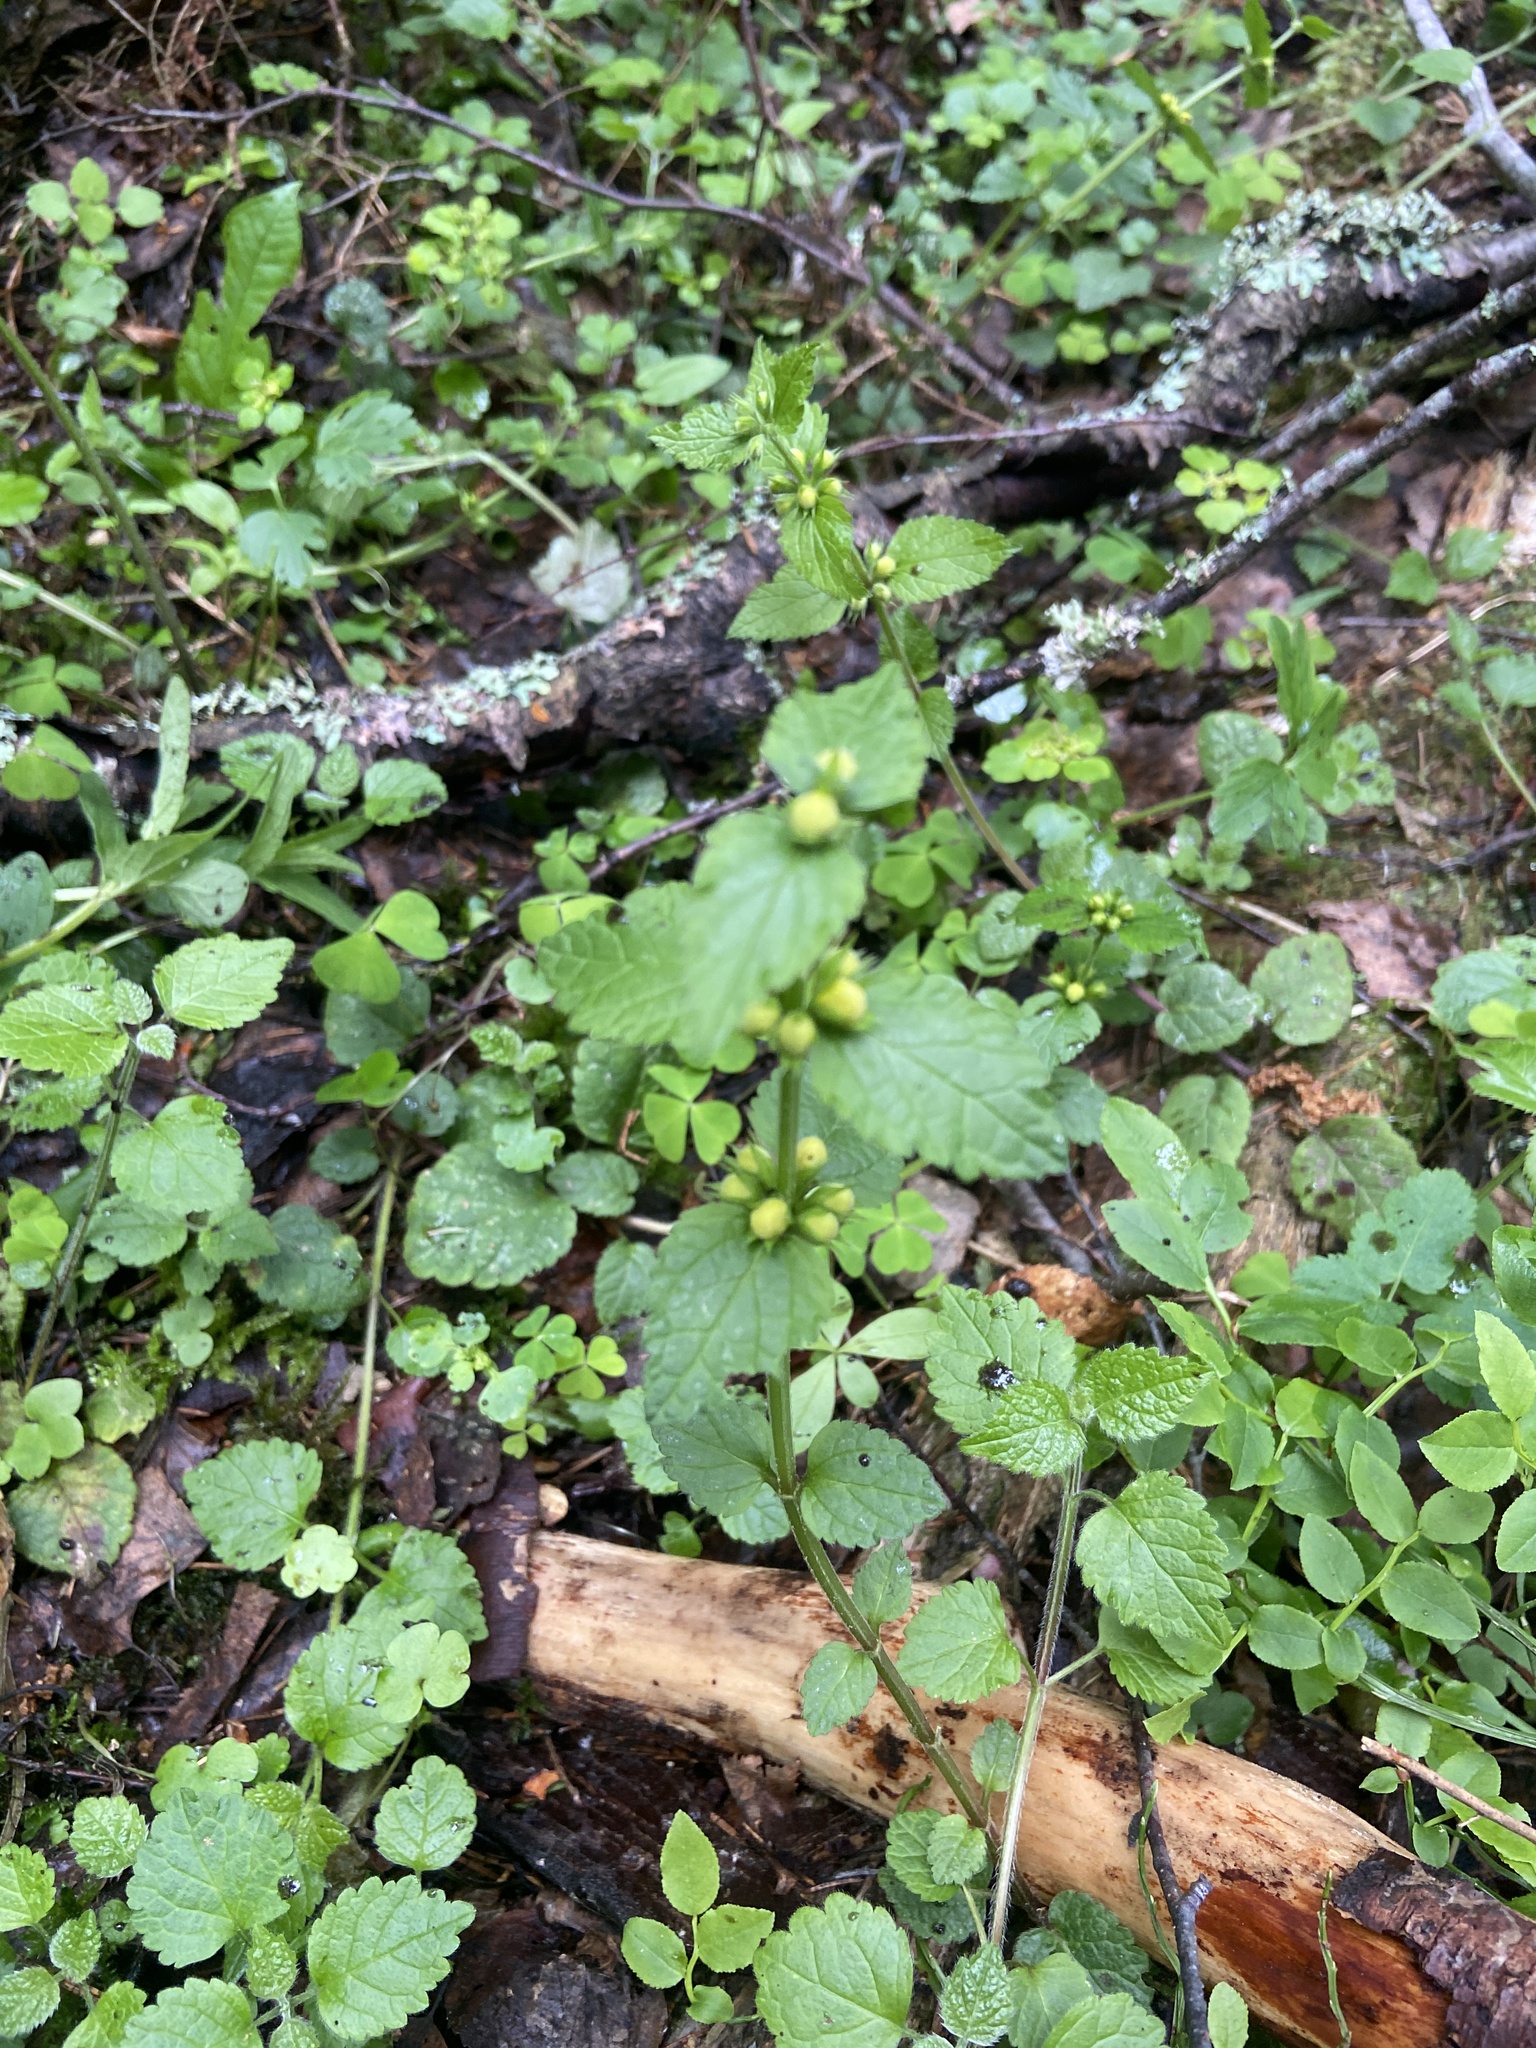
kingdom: Plantae
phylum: Tracheophyta
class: Magnoliopsida
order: Lamiales
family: Lamiaceae
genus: Lamium
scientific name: Lamium galeobdolon
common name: Yellow archangel
